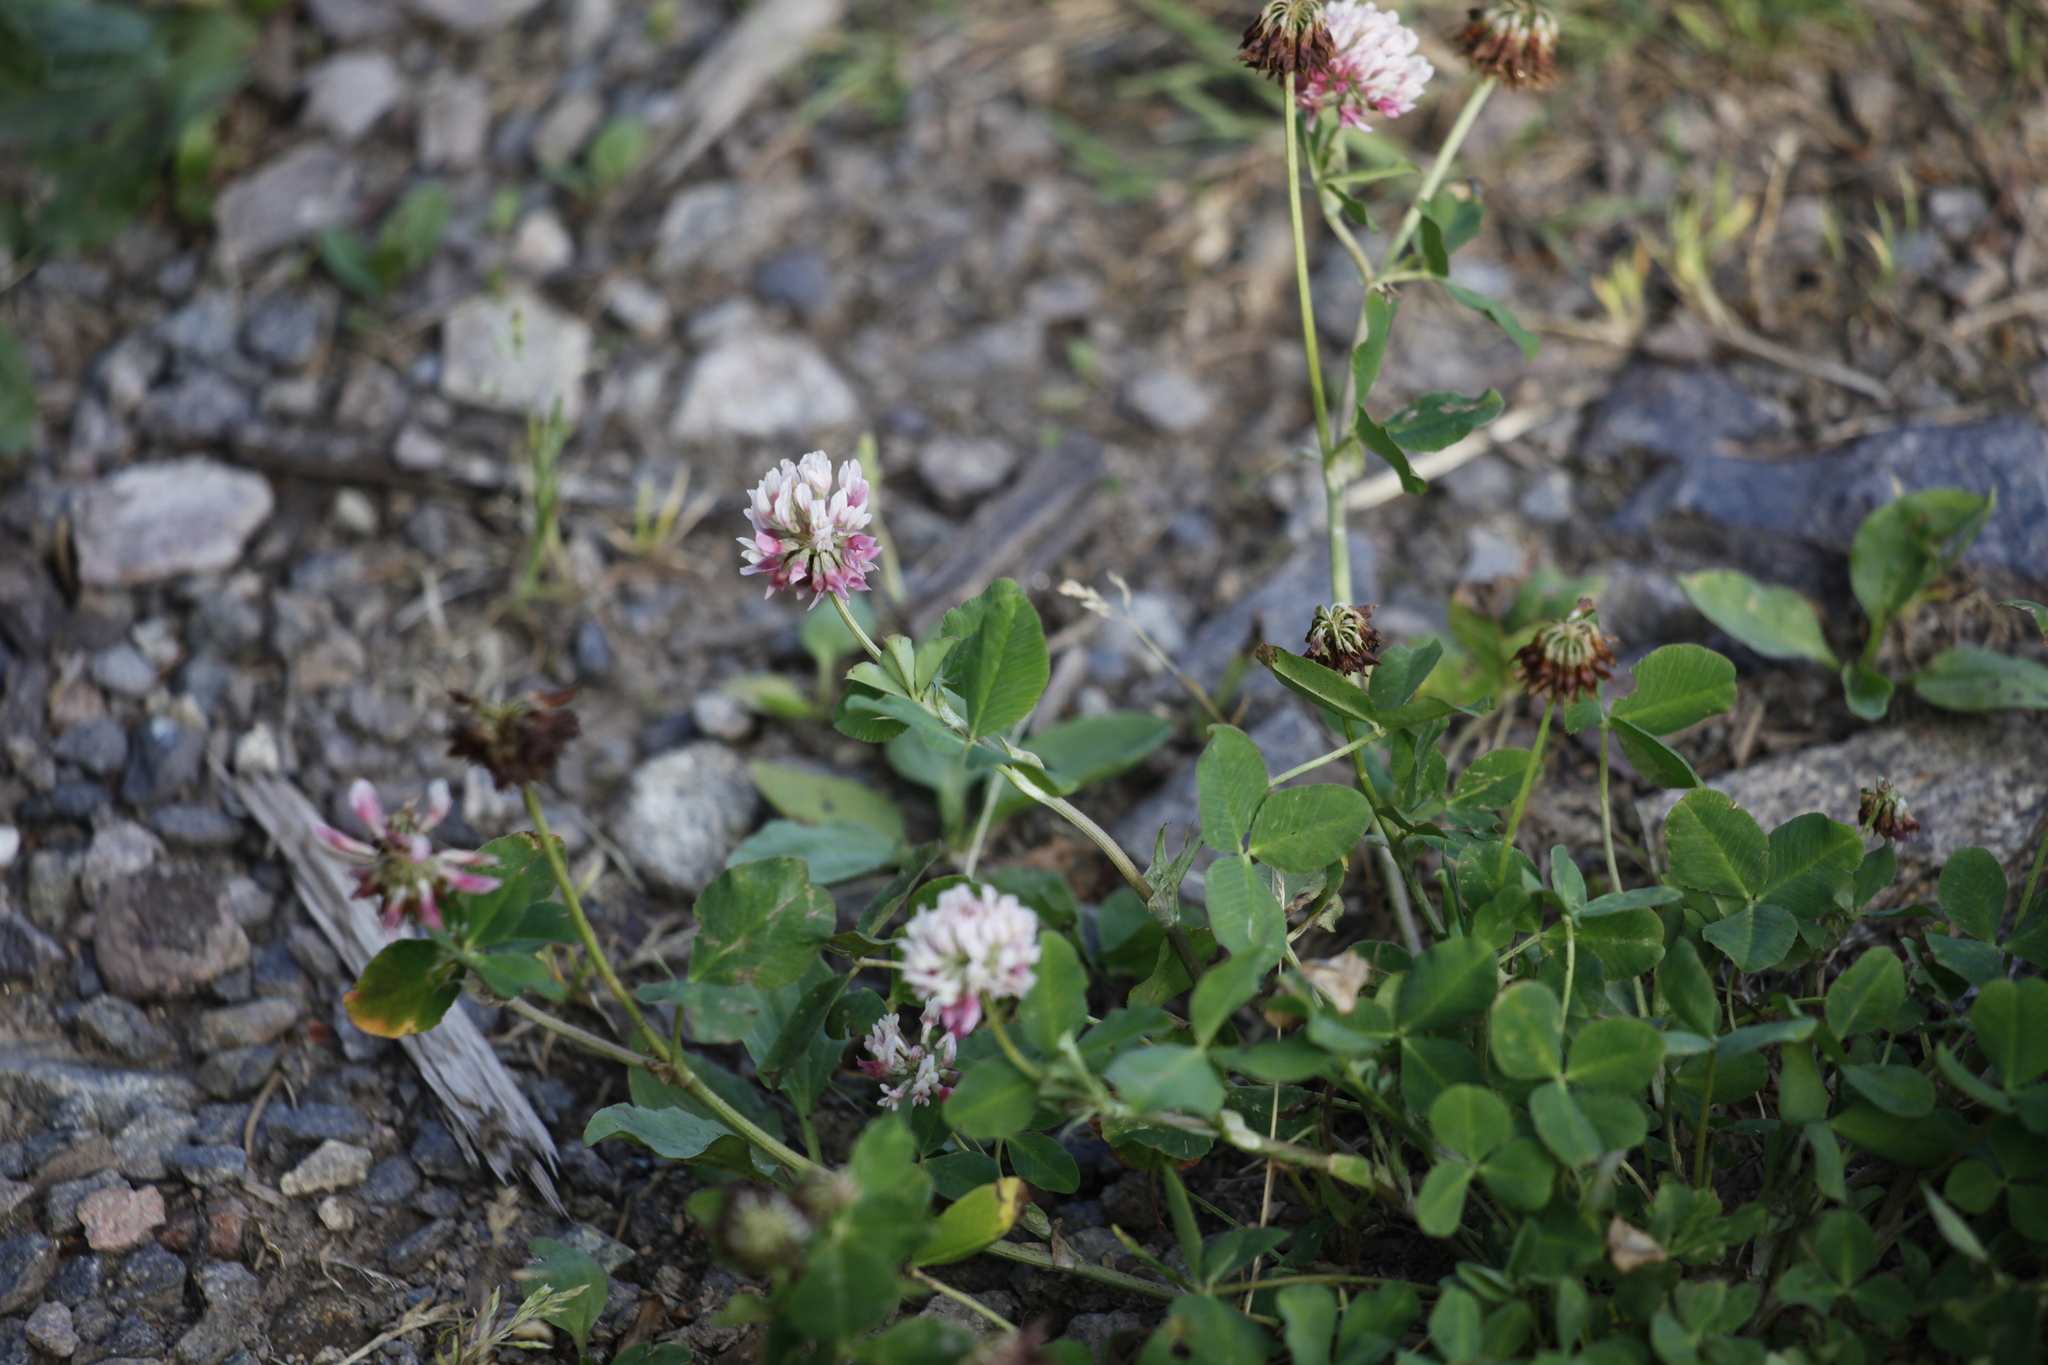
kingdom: Plantae
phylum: Tracheophyta
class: Magnoliopsida
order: Fabales
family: Fabaceae
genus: Trifolium
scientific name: Trifolium hybridum
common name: Alsike clover
